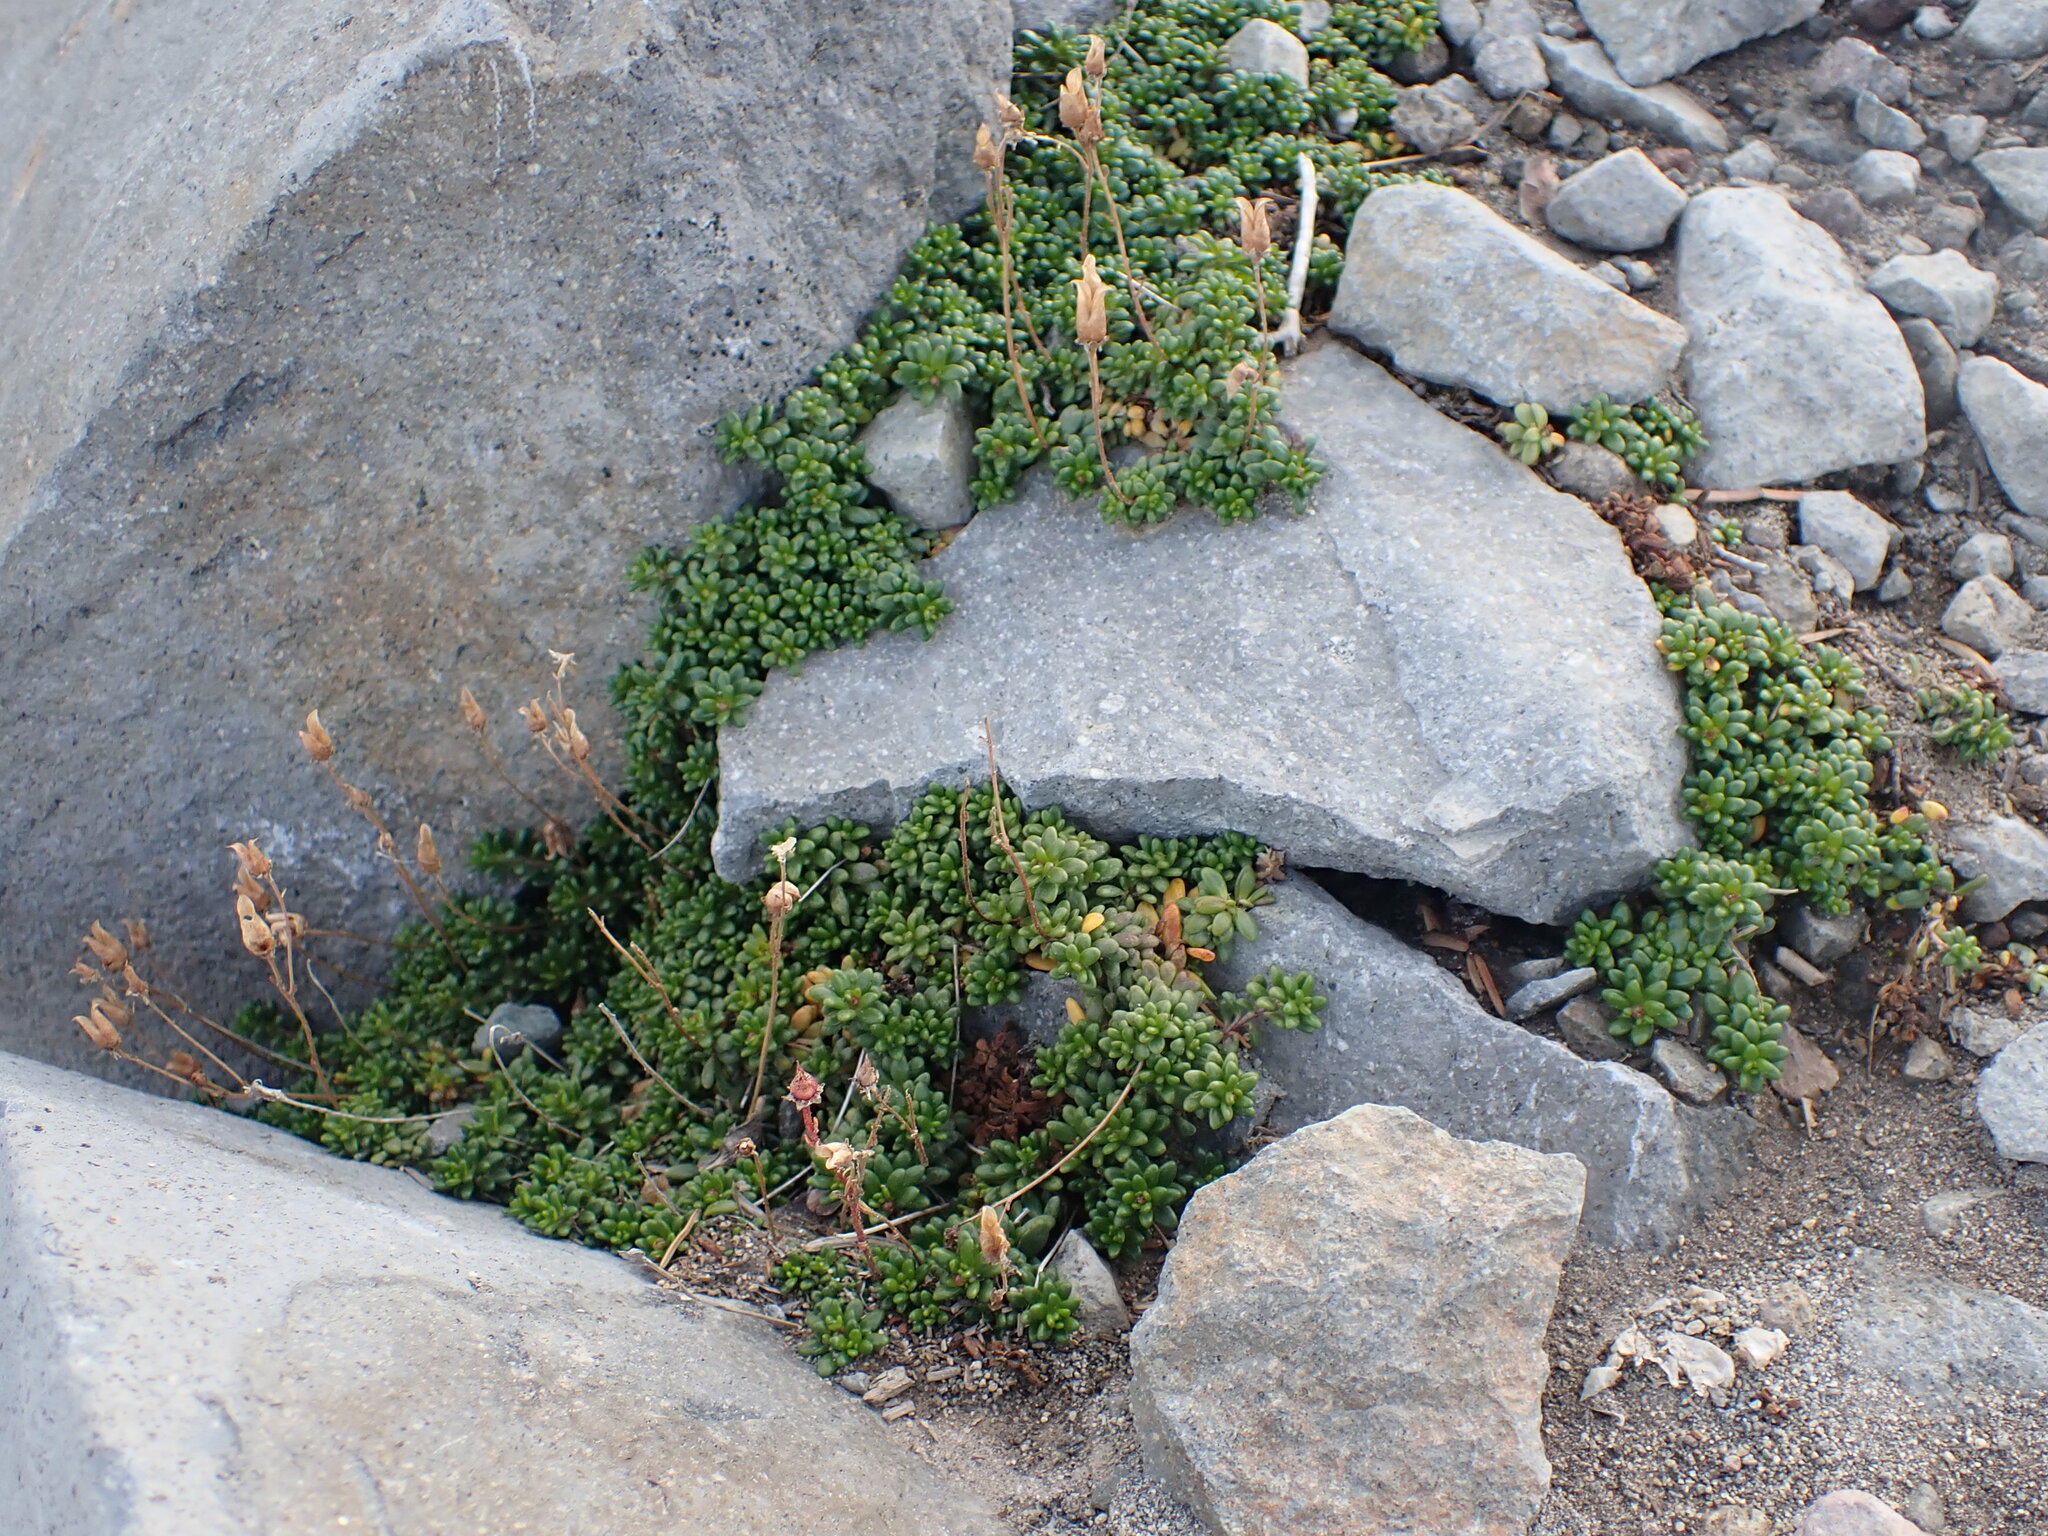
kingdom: Plantae
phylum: Tracheophyta
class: Magnoliopsida
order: Saxifragales
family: Saxifragaceae
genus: Micranthes
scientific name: Micranthes tolmiei
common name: Tolmie's saxifrage
